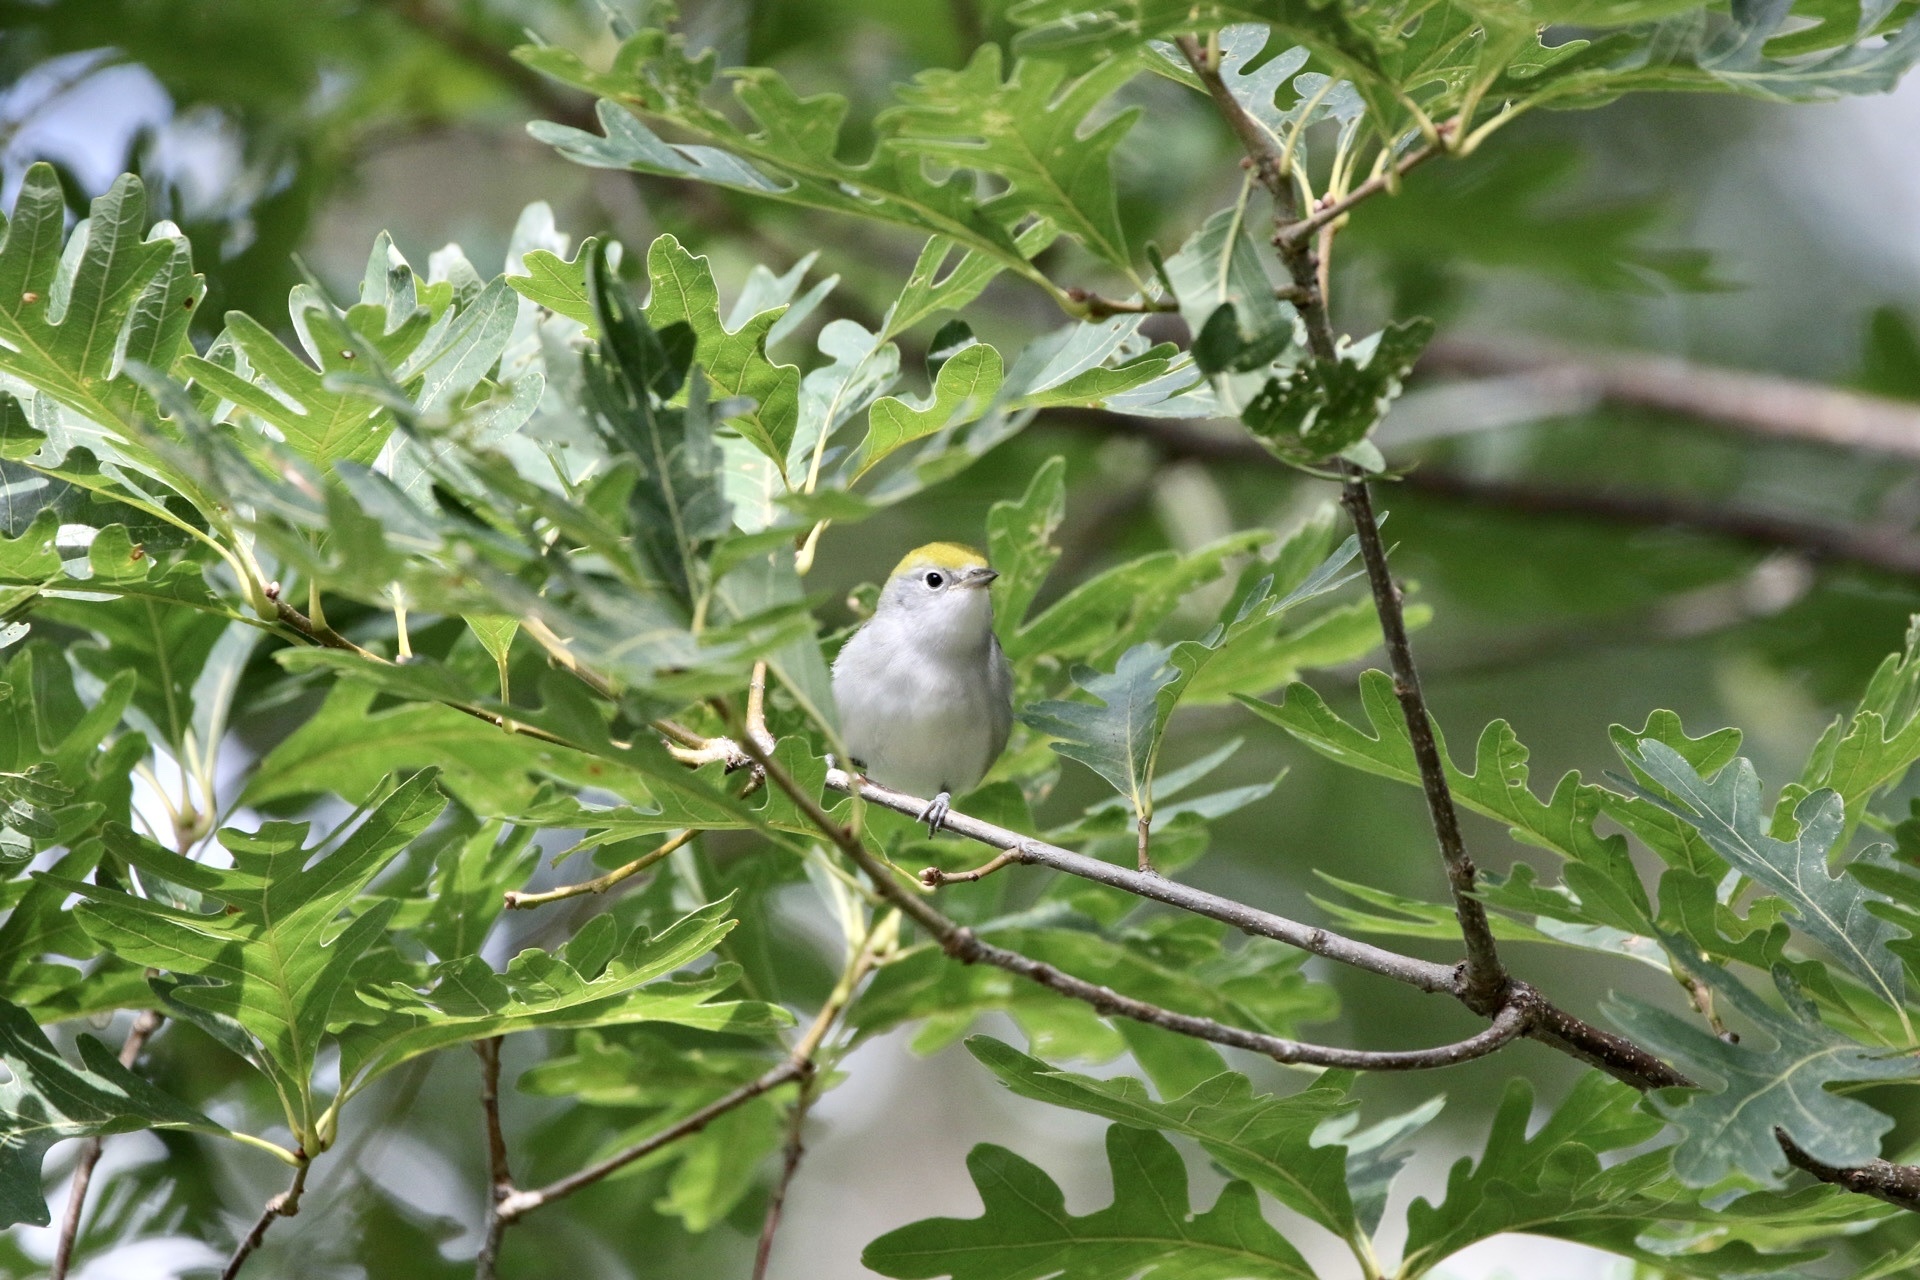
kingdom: Animalia
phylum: Chordata
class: Aves
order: Passeriformes
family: Parulidae
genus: Setophaga
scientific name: Setophaga pensylvanica
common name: Chestnut-sided warbler
